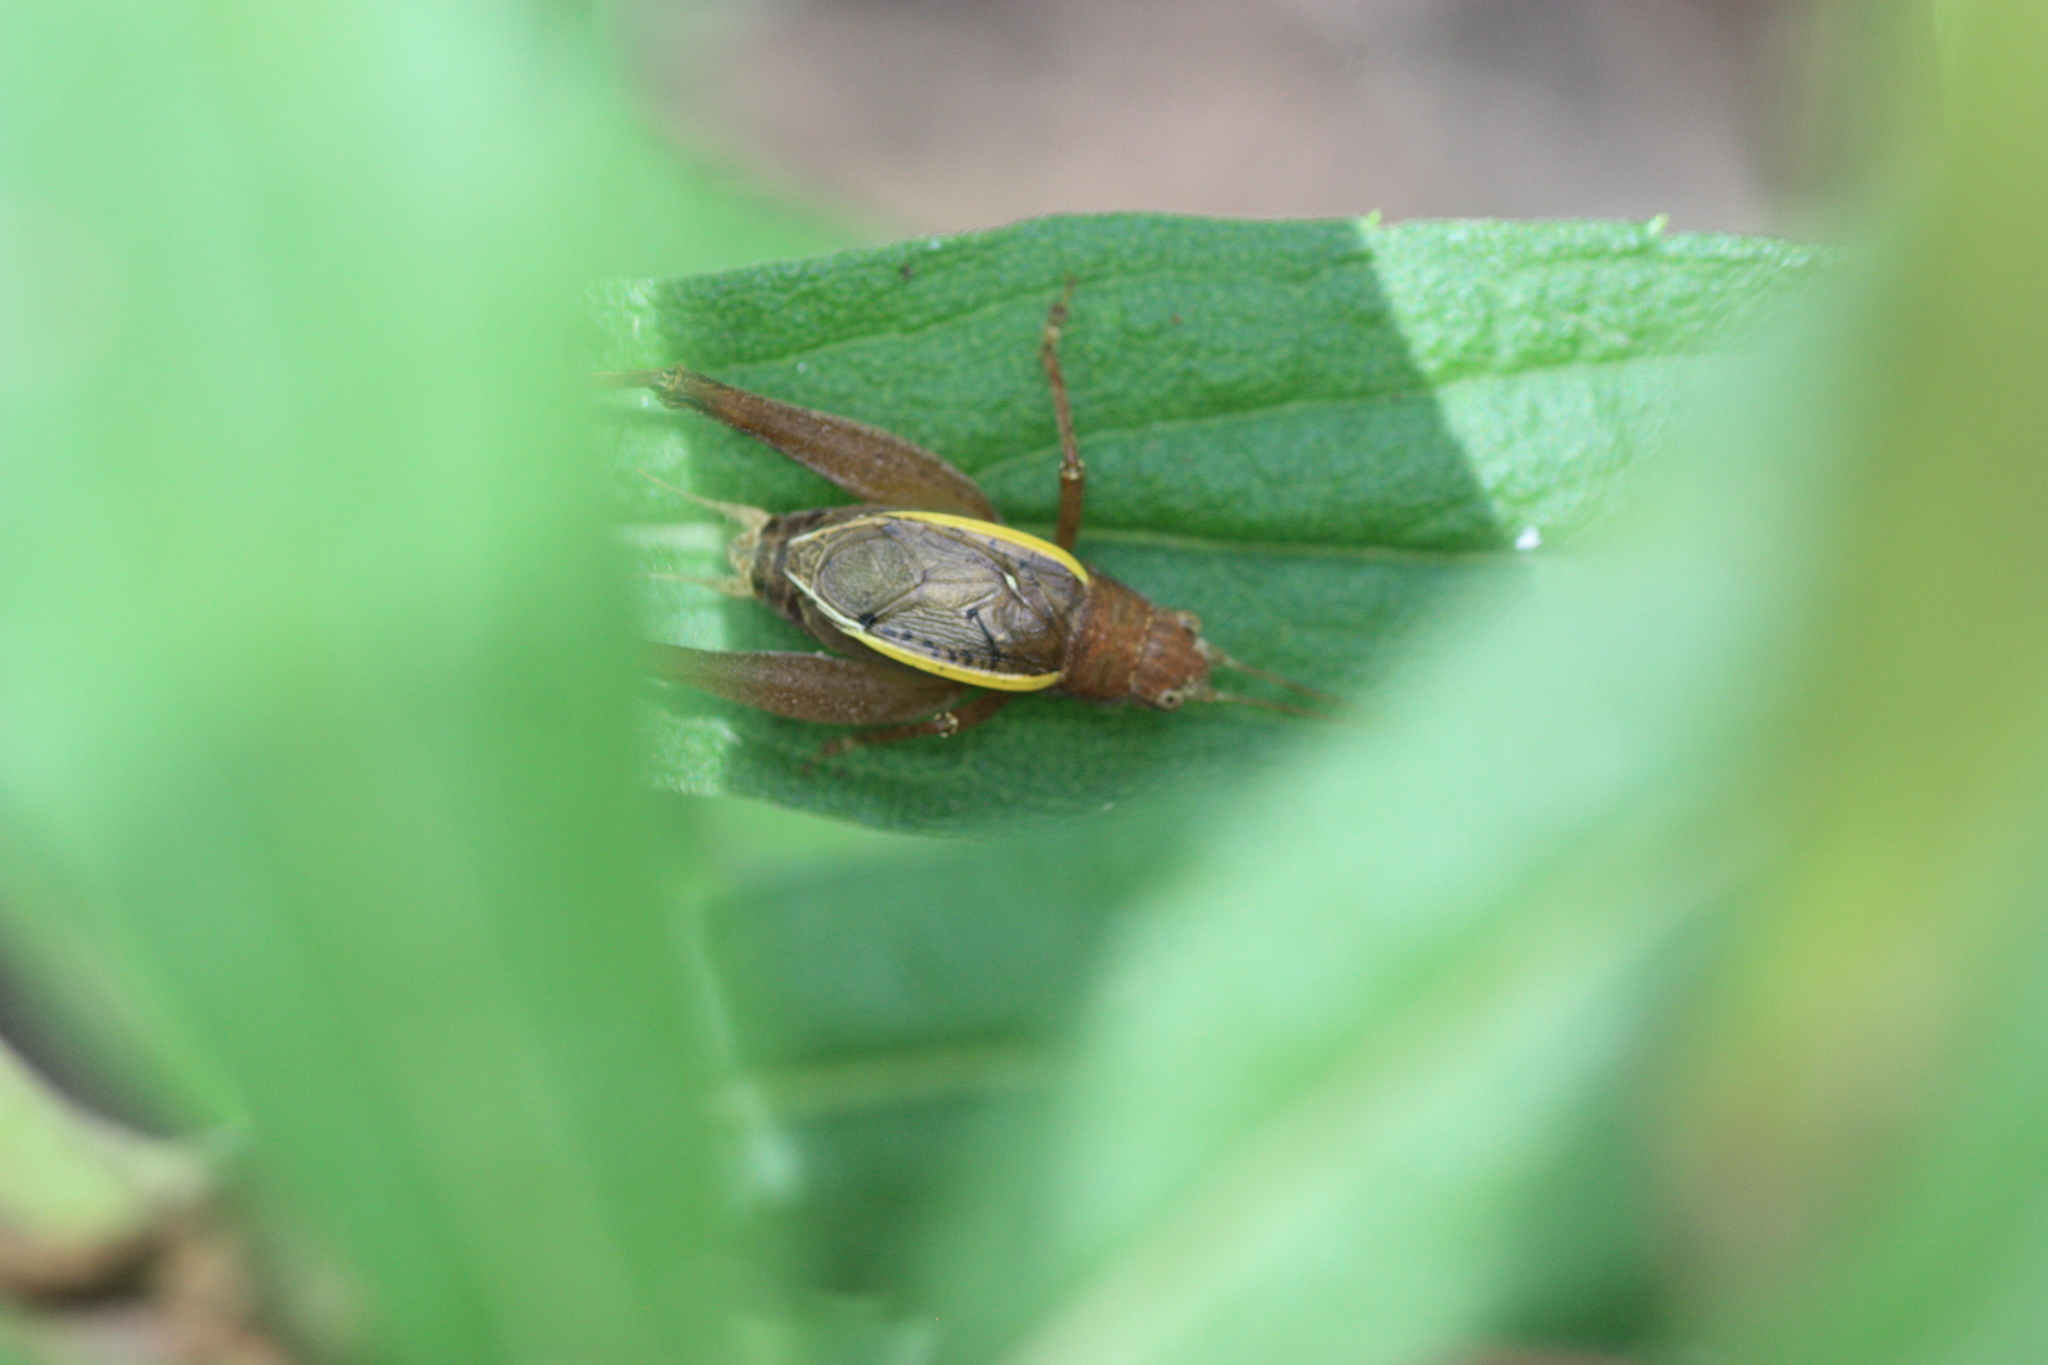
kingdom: Animalia
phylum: Arthropoda
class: Insecta
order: Orthoptera
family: Gryllidae
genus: Hapithus
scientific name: Hapithus agitator
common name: Restless bush cricket
